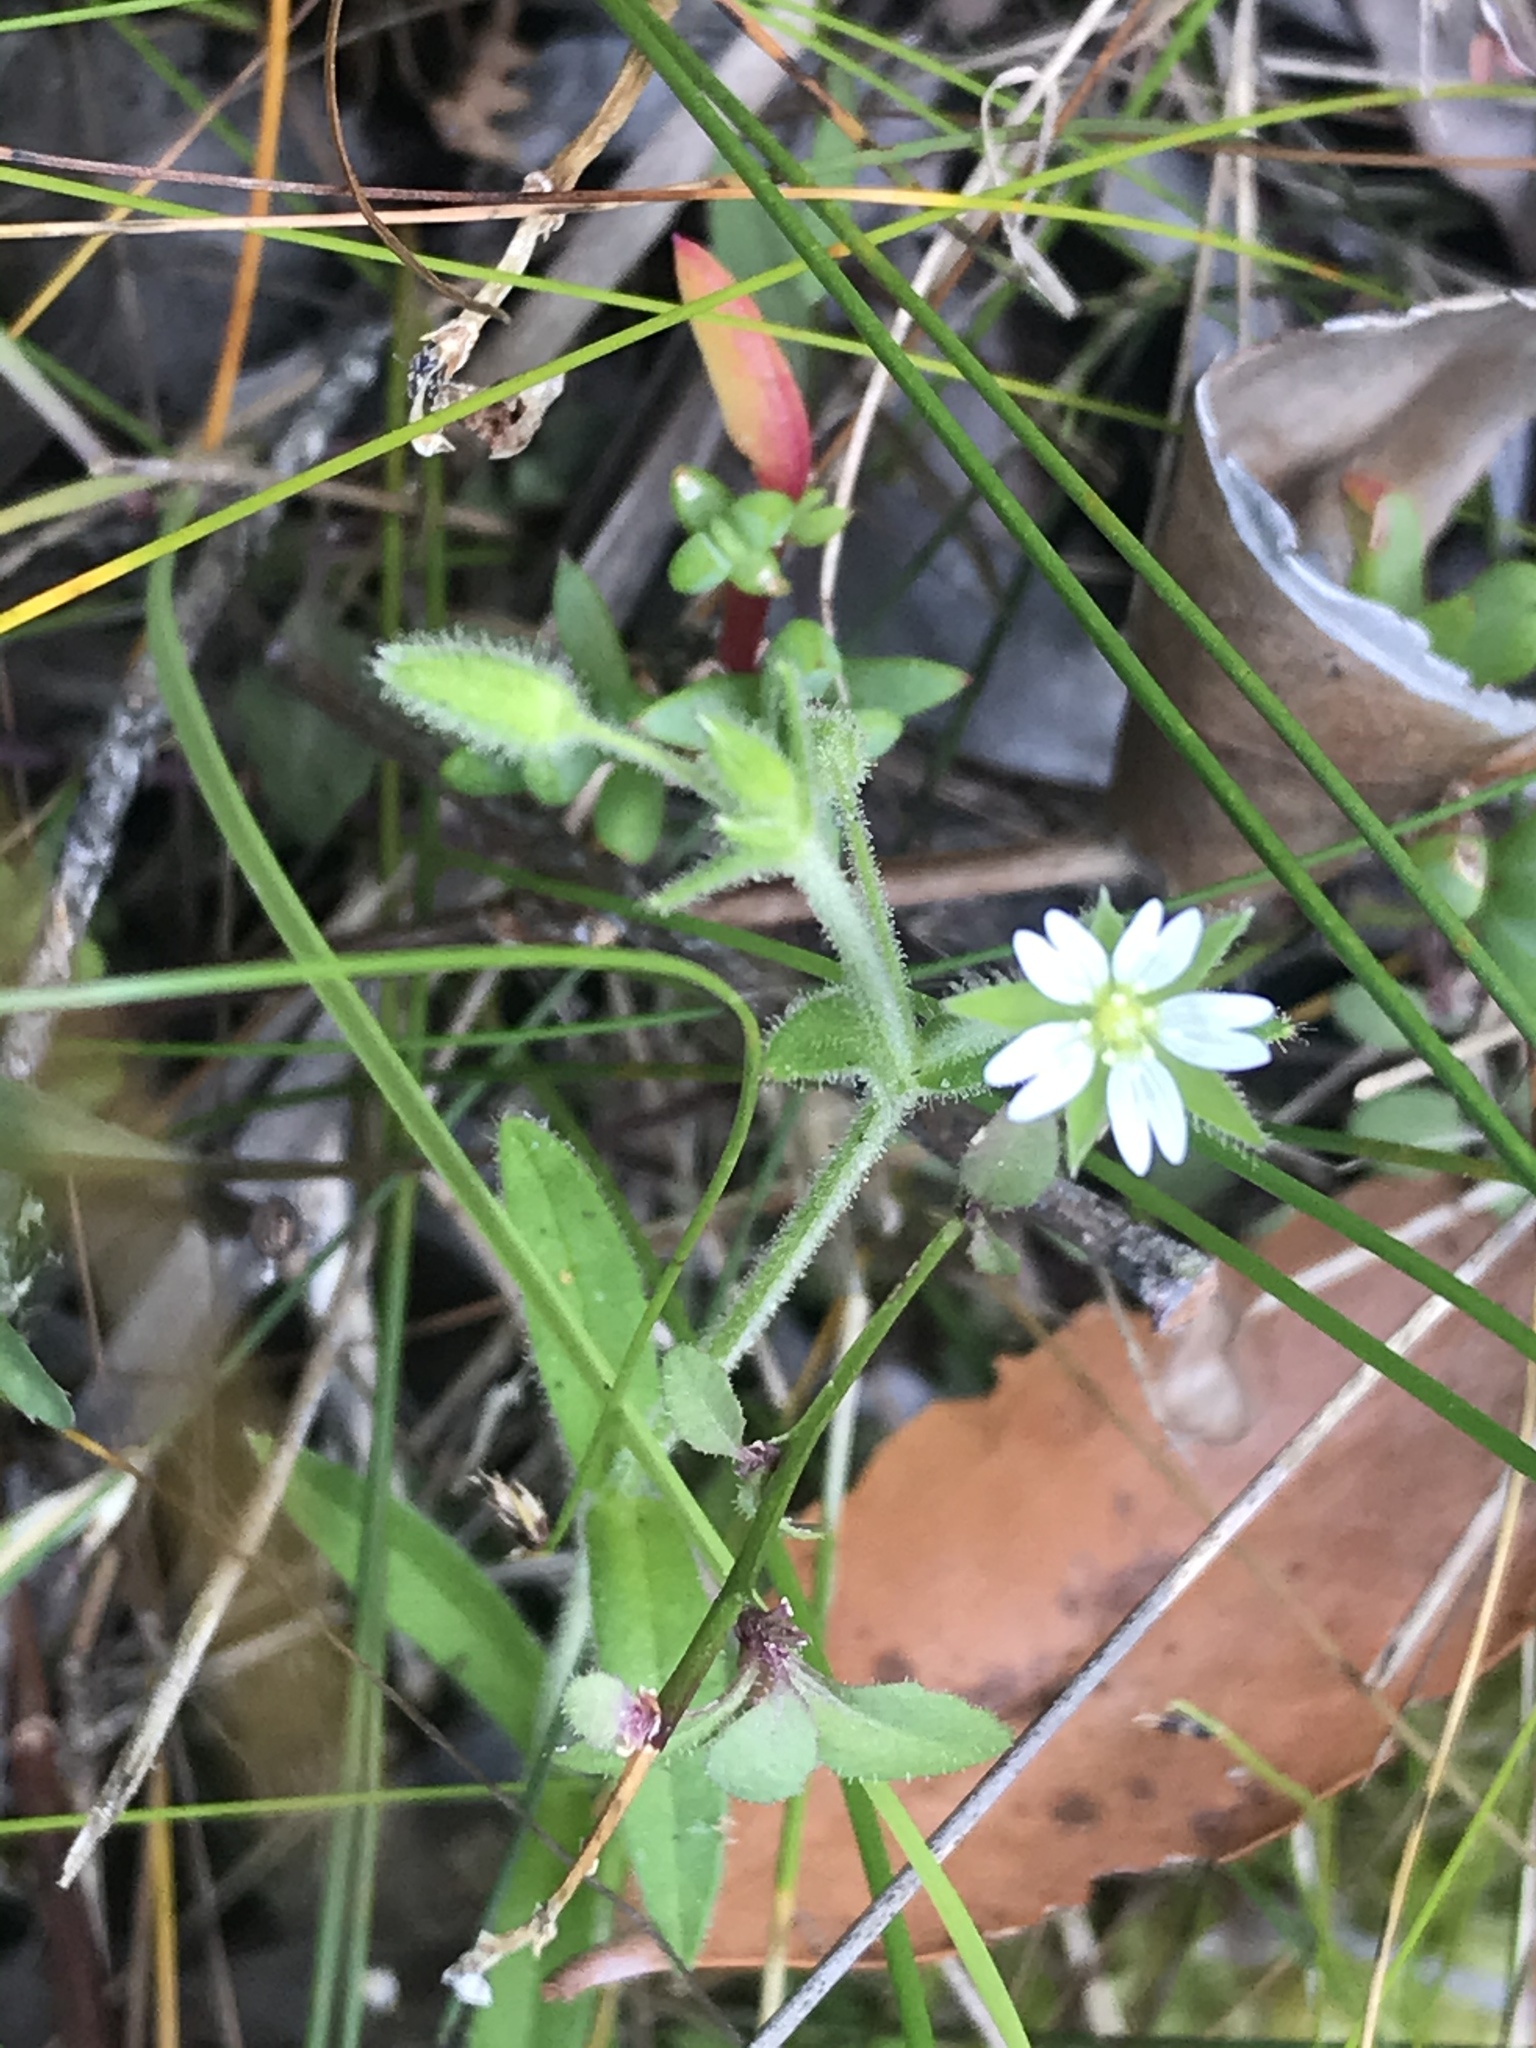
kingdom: Plantae
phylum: Tracheophyta
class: Magnoliopsida
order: Caryophyllales
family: Caryophyllaceae
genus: Cerastium
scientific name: Cerastium capense
